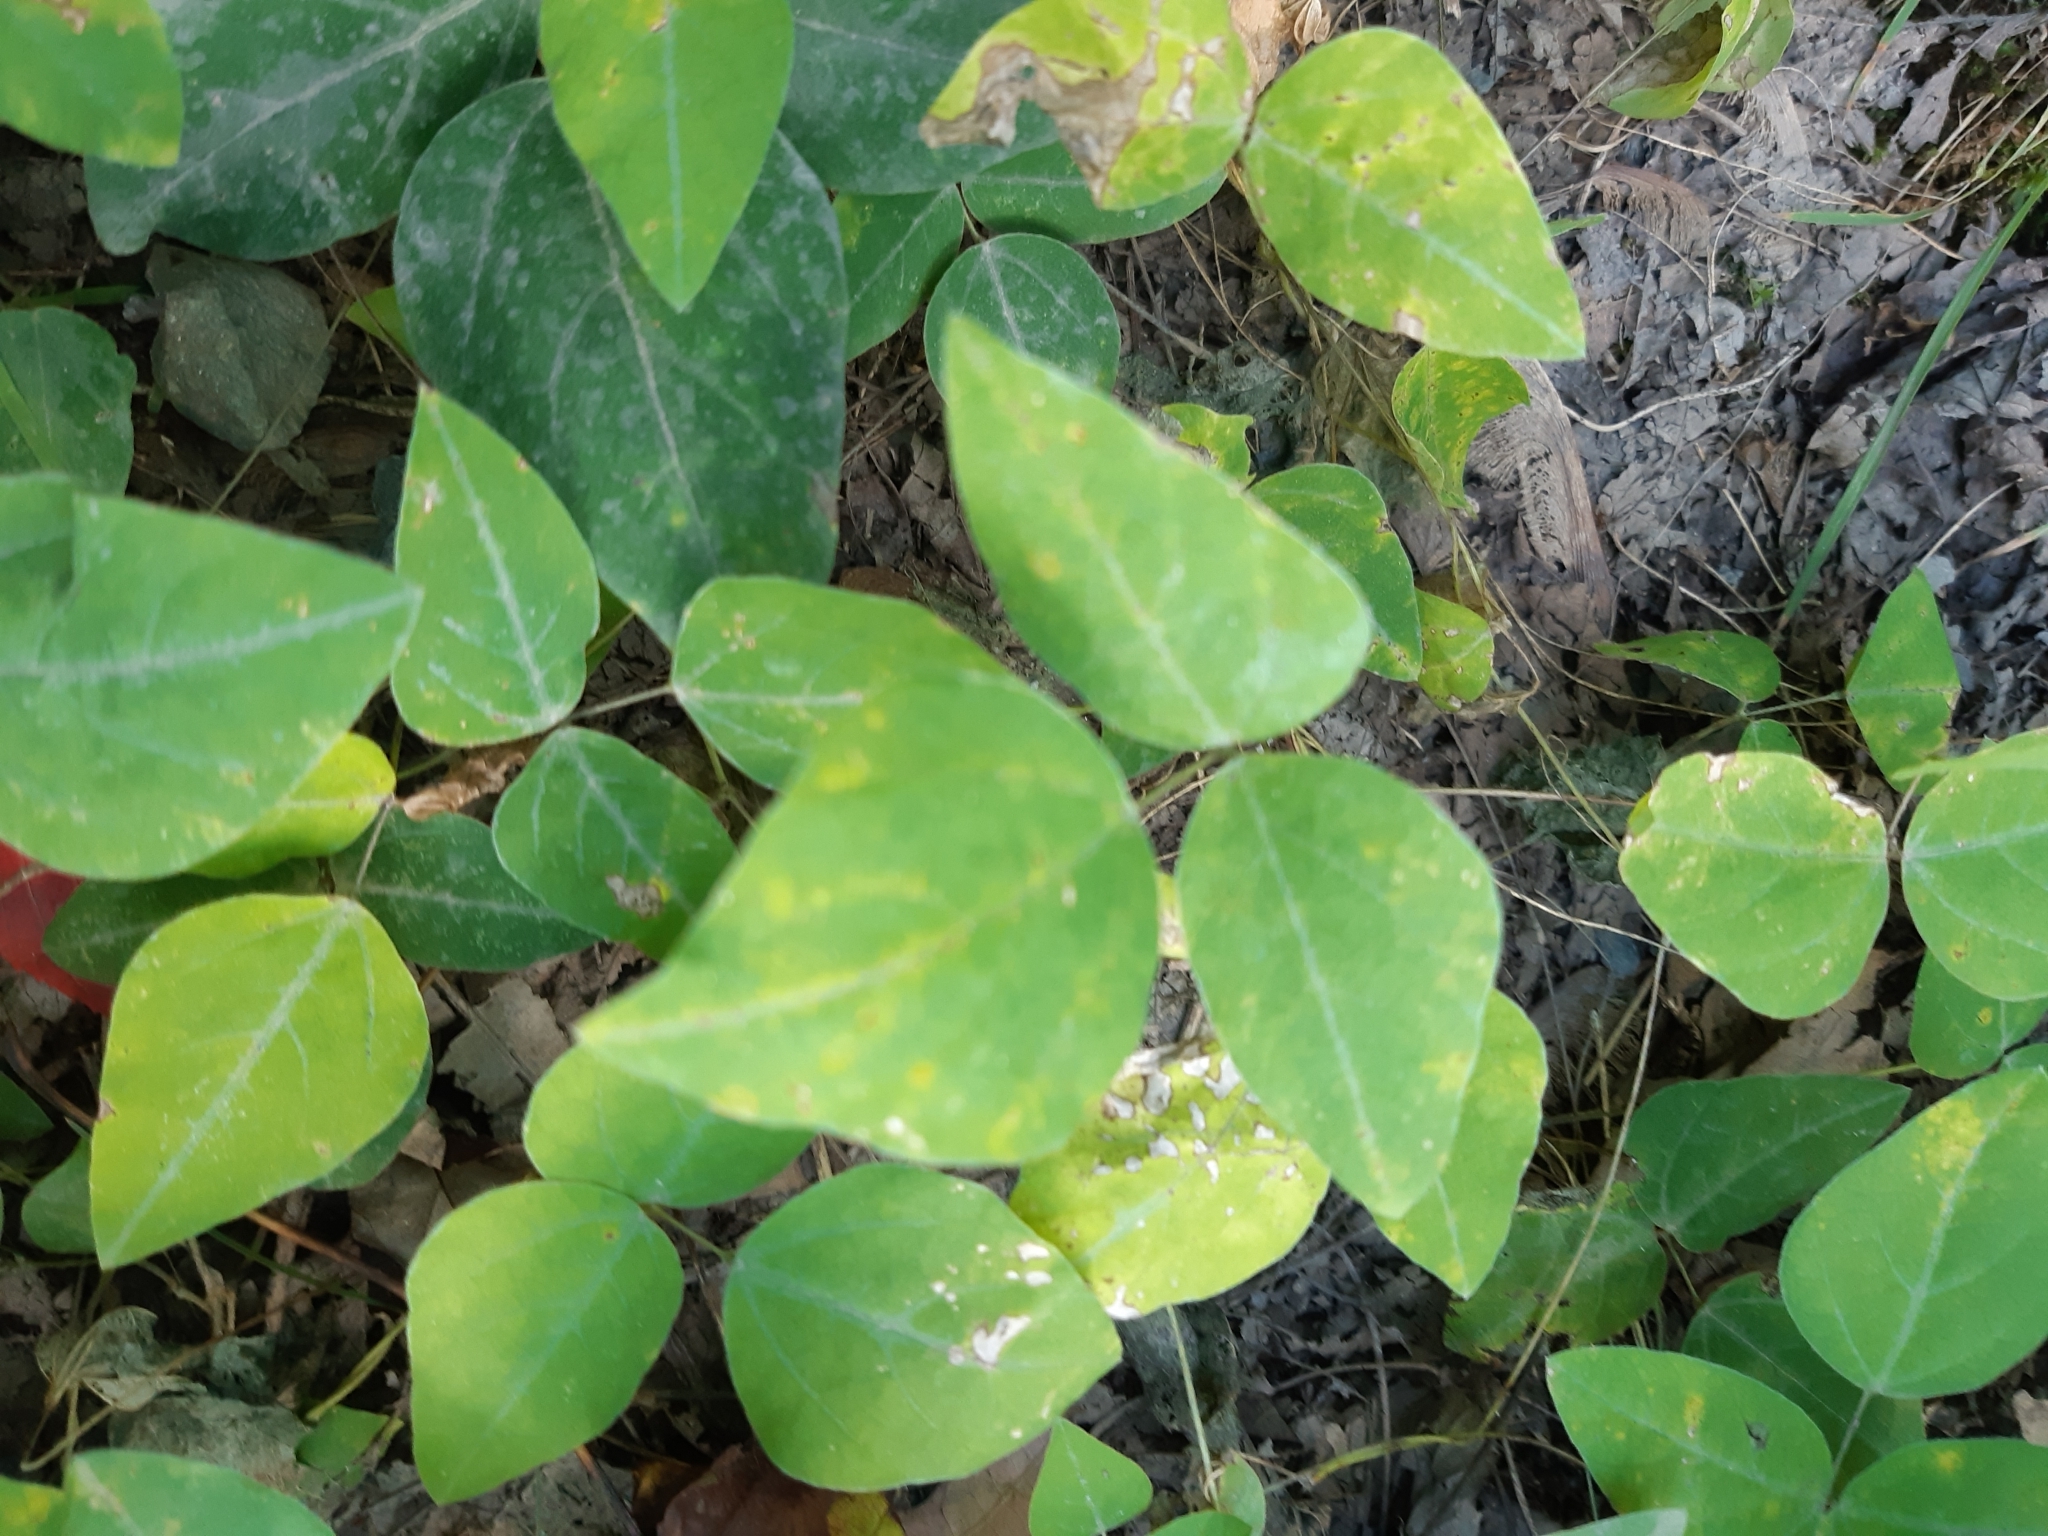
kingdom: Plantae
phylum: Tracheophyta
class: Magnoliopsida
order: Fabales
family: Fabaceae
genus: Amphicarpaea
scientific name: Amphicarpaea bracteata
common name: American hog peanut
